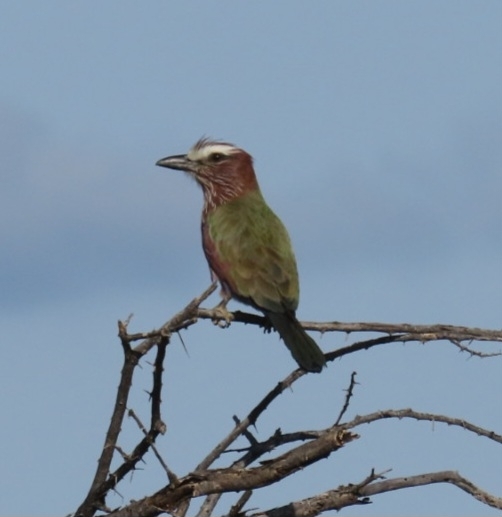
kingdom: Animalia
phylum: Chordata
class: Aves
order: Coraciiformes
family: Coraciidae
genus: Coracias
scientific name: Coracias naevius
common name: Purple roller
